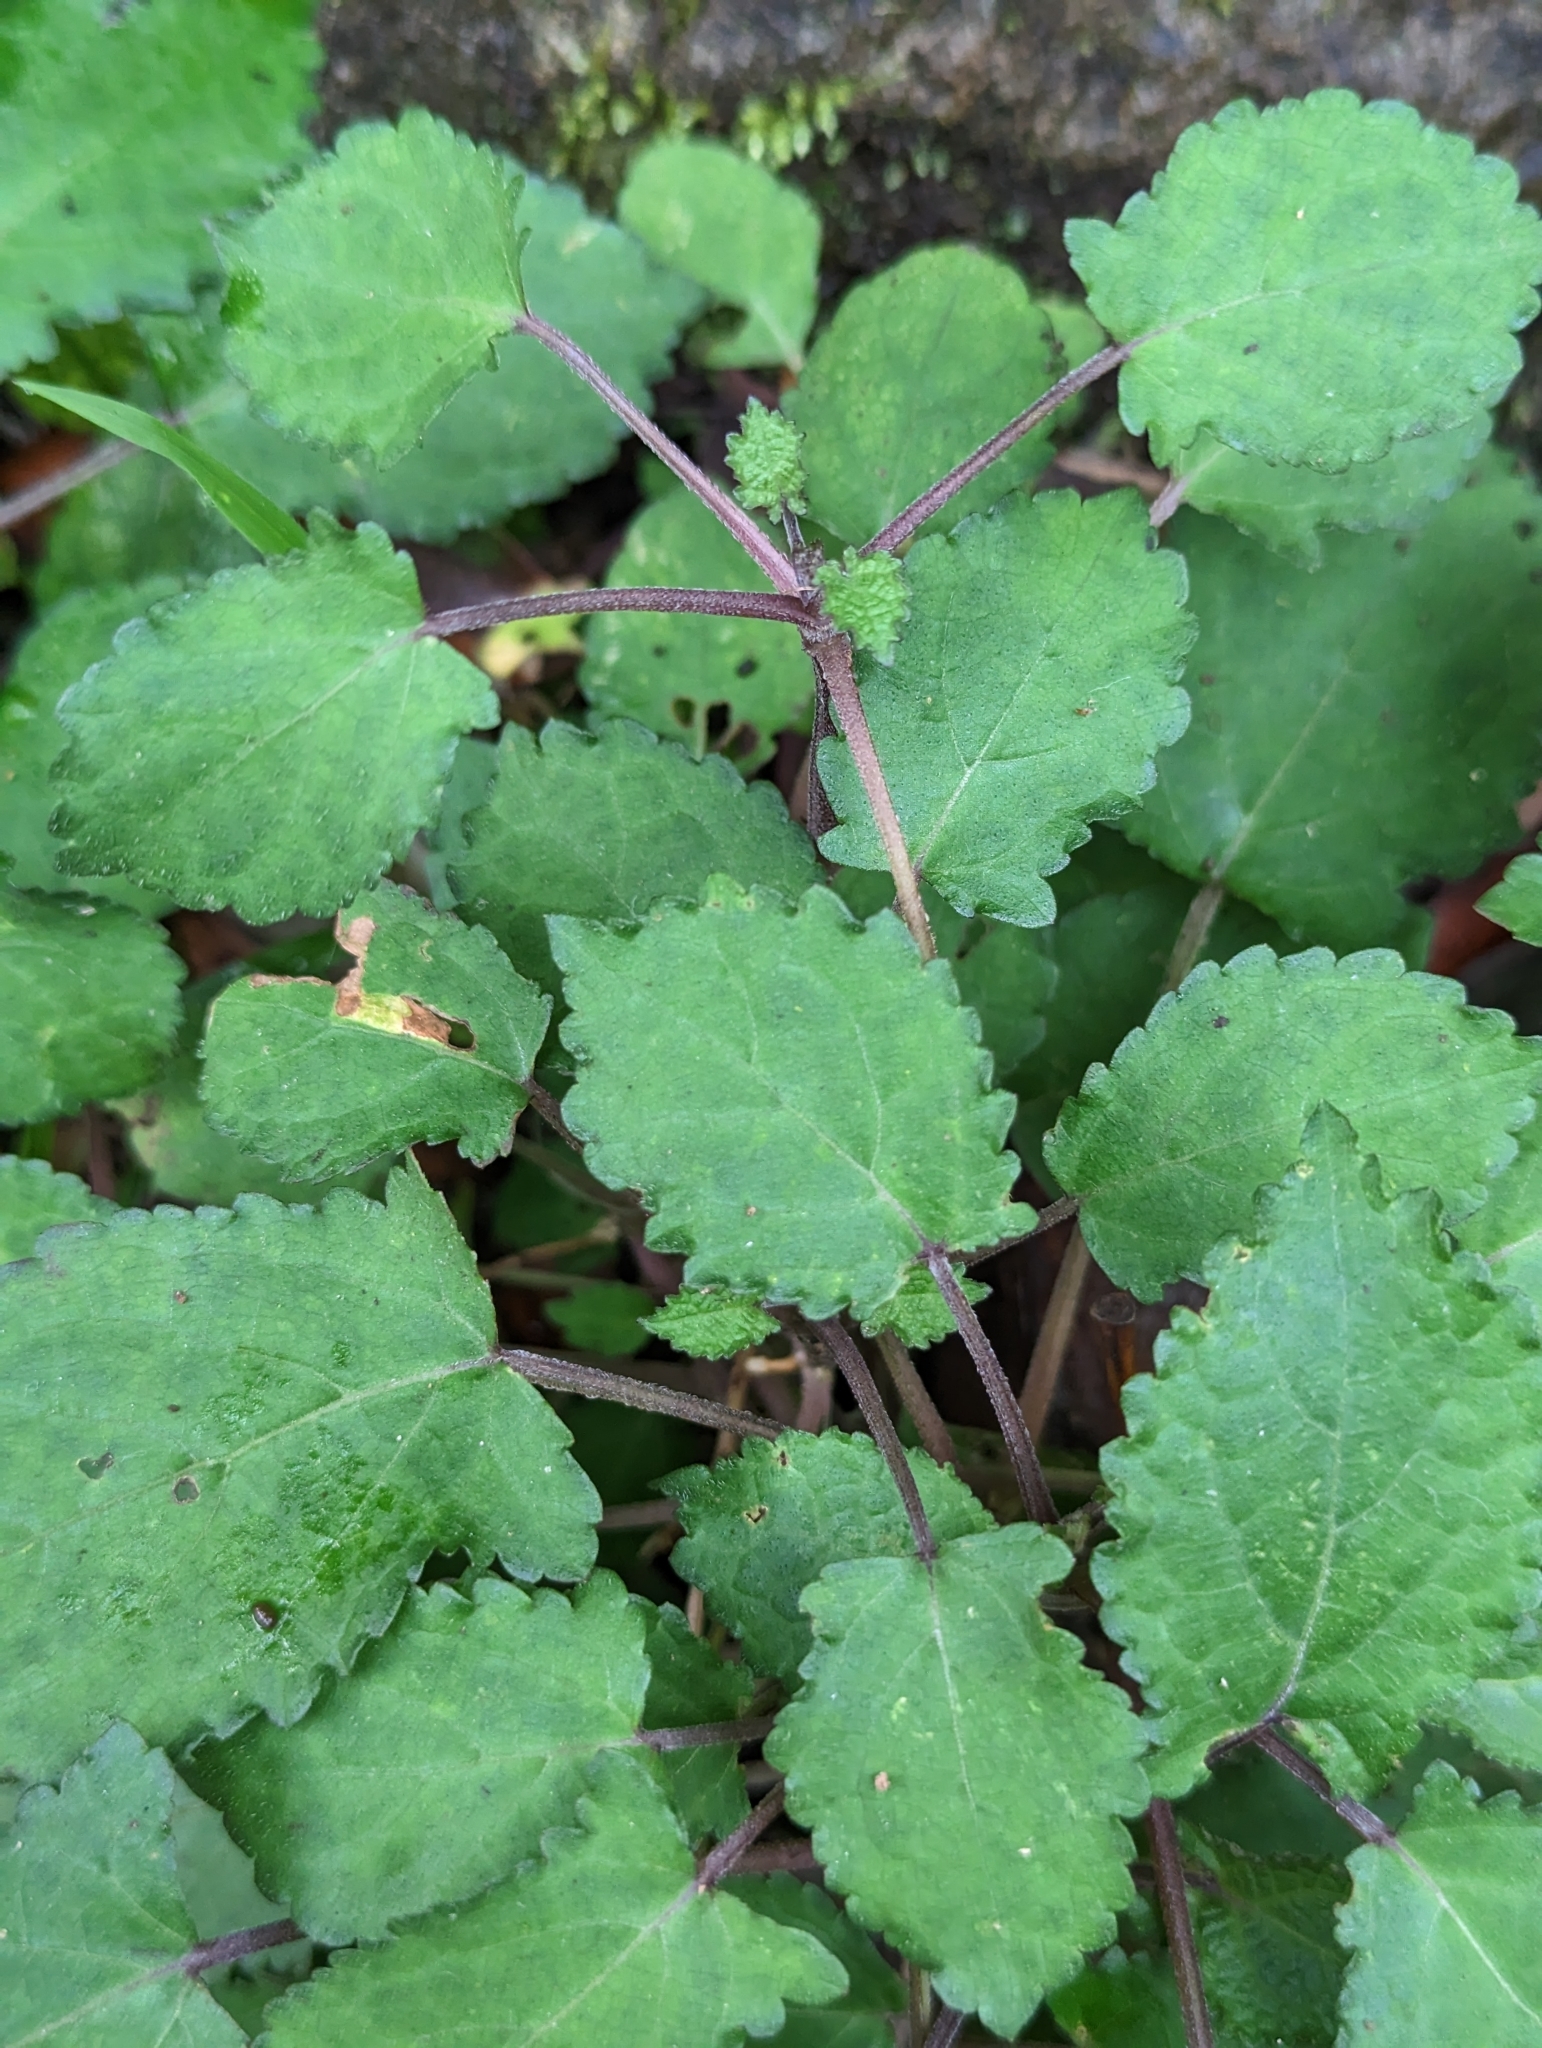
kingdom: Plantae
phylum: Tracheophyta
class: Magnoliopsida
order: Lamiales
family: Lamiaceae
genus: Salvia
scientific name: Salvia japonica
